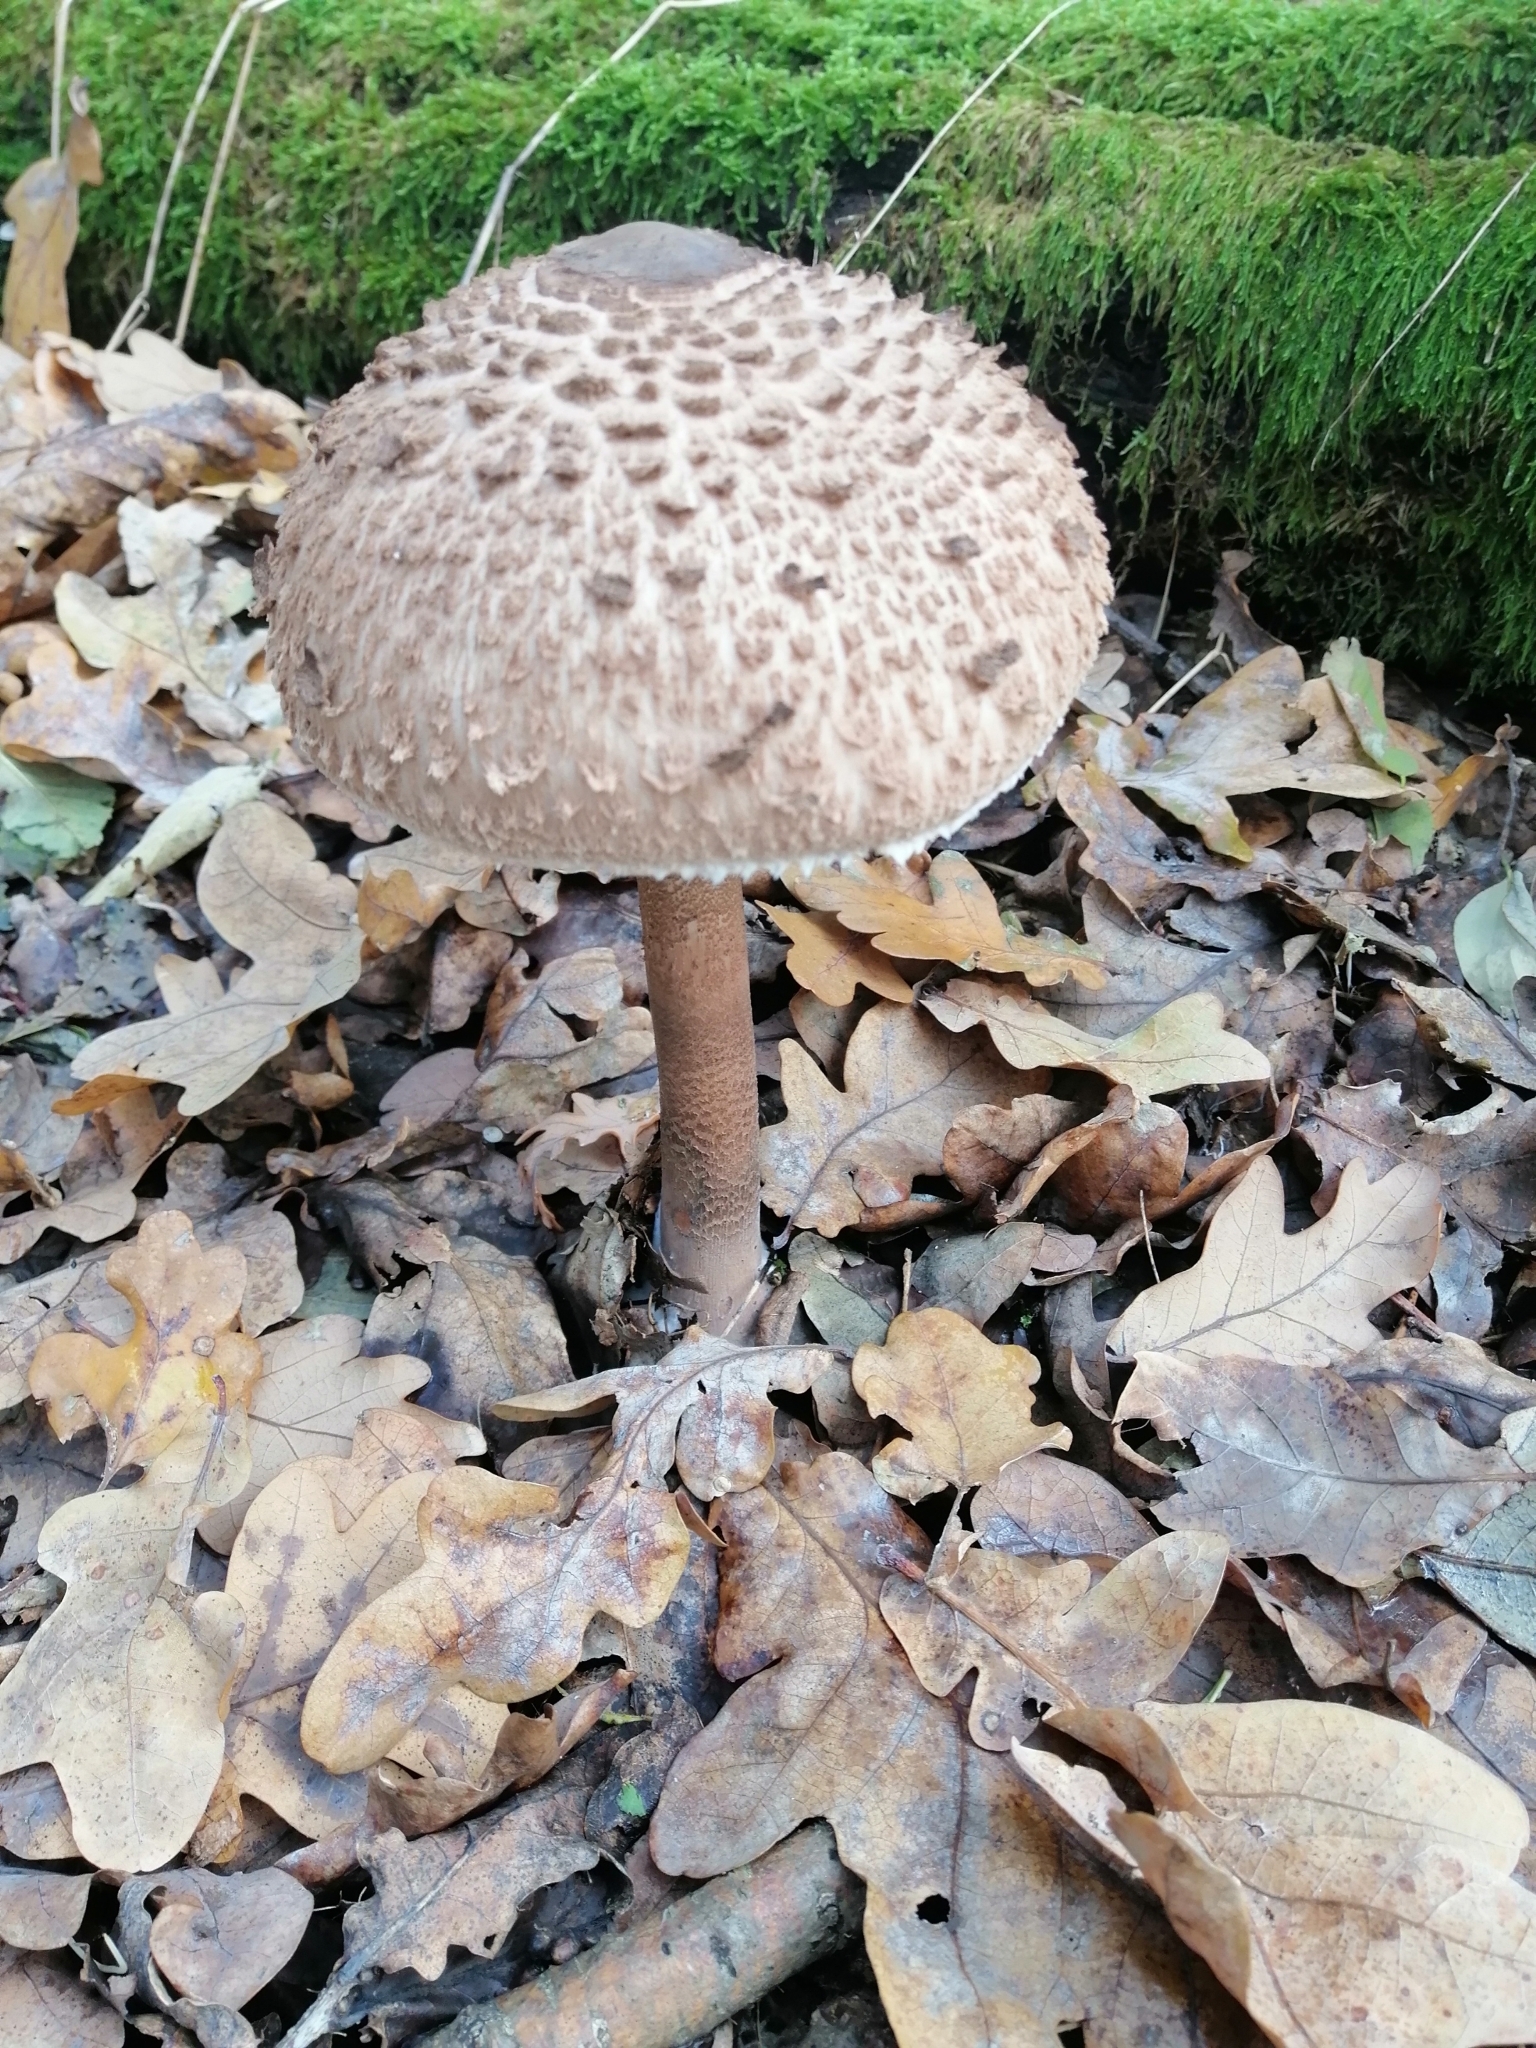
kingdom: Fungi
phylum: Basidiomycota
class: Agaricomycetes
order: Agaricales
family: Agaricaceae
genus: Macrolepiota
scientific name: Macrolepiota procera
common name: Parasol
